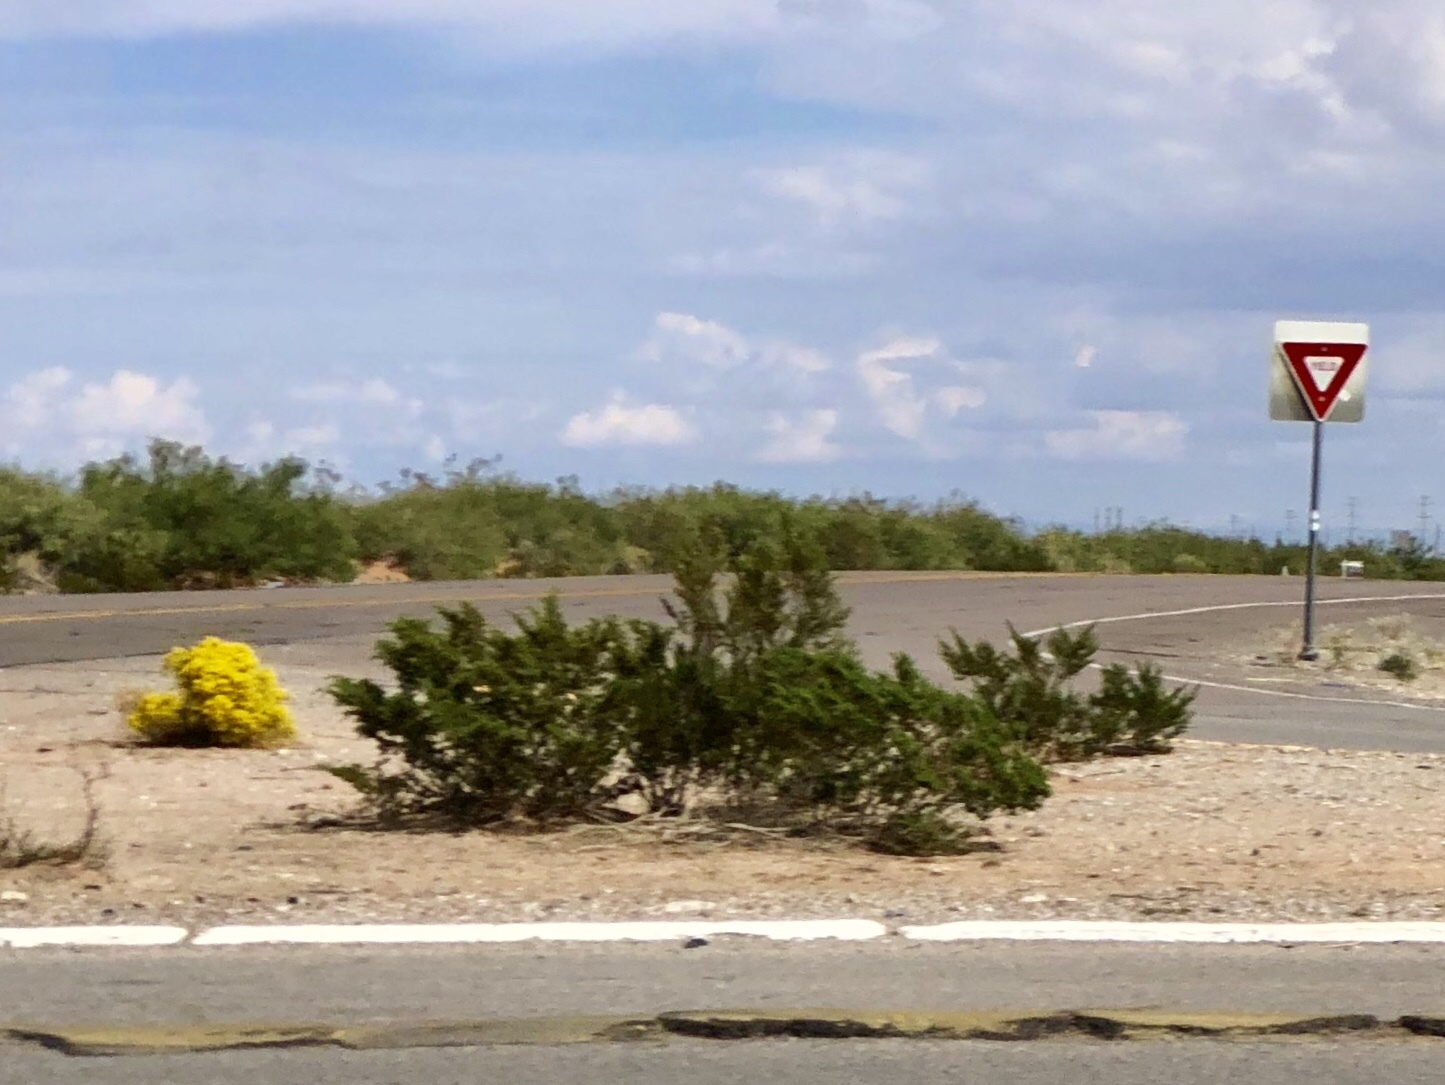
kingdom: Plantae
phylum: Tracheophyta
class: Magnoliopsida
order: Zygophyllales
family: Zygophyllaceae
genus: Larrea
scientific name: Larrea tridentata
